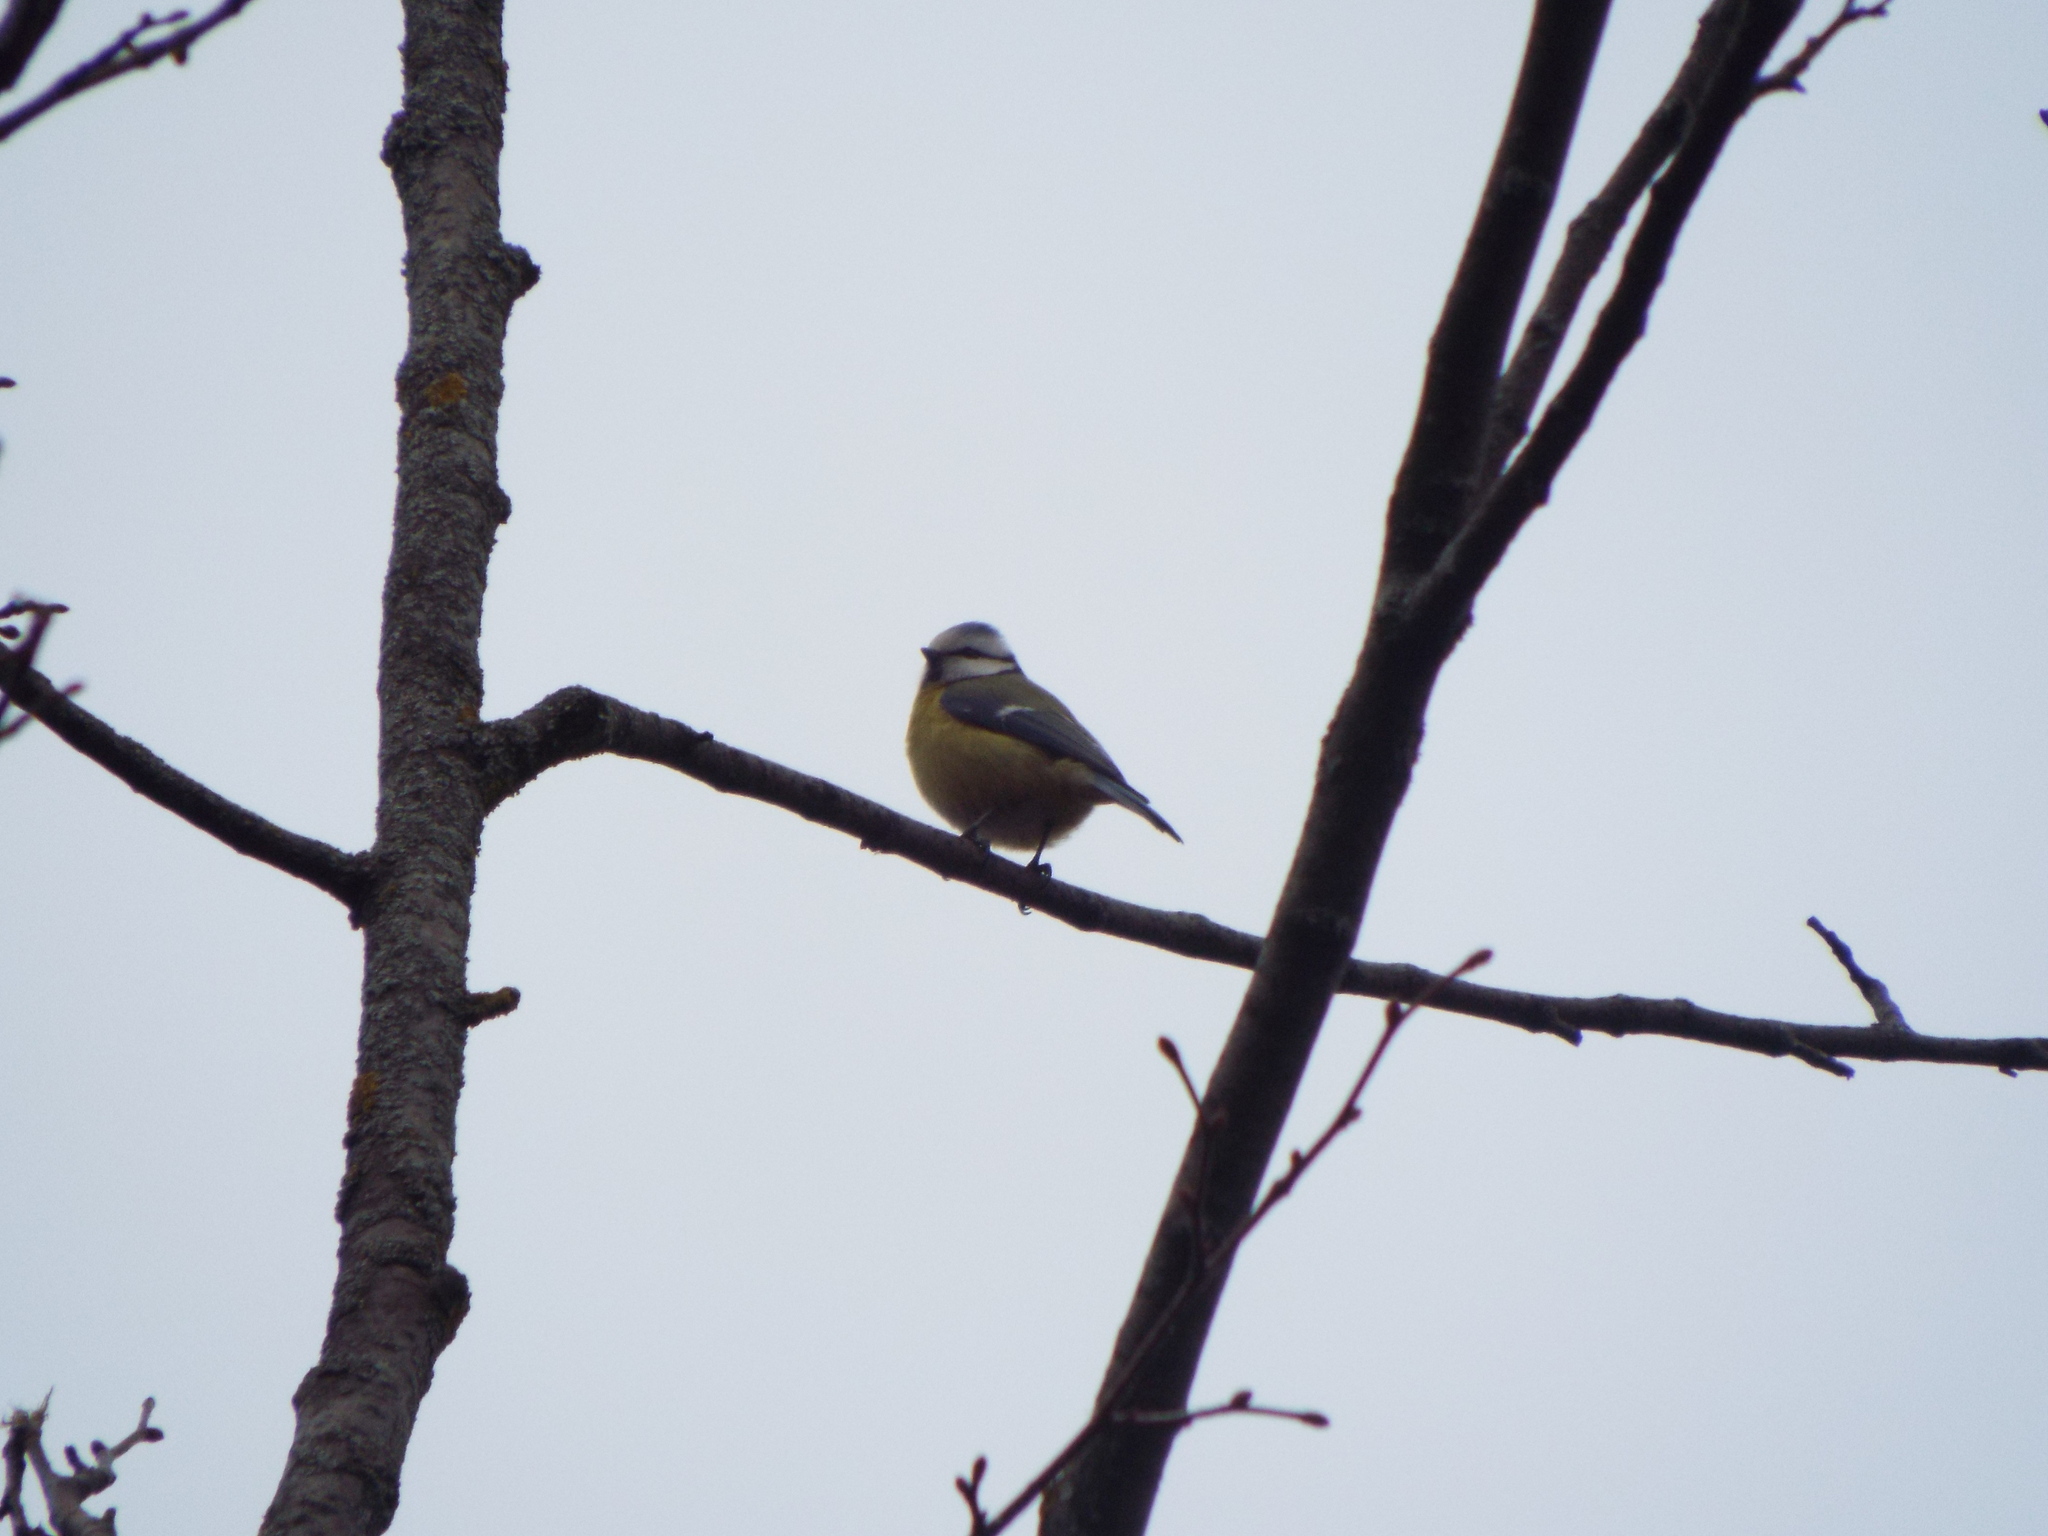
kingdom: Animalia
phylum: Chordata
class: Aves
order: Passeriformes
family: Paridae
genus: Cyanistes
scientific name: Cyanistes caeruleus
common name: Eurasian blue tit
